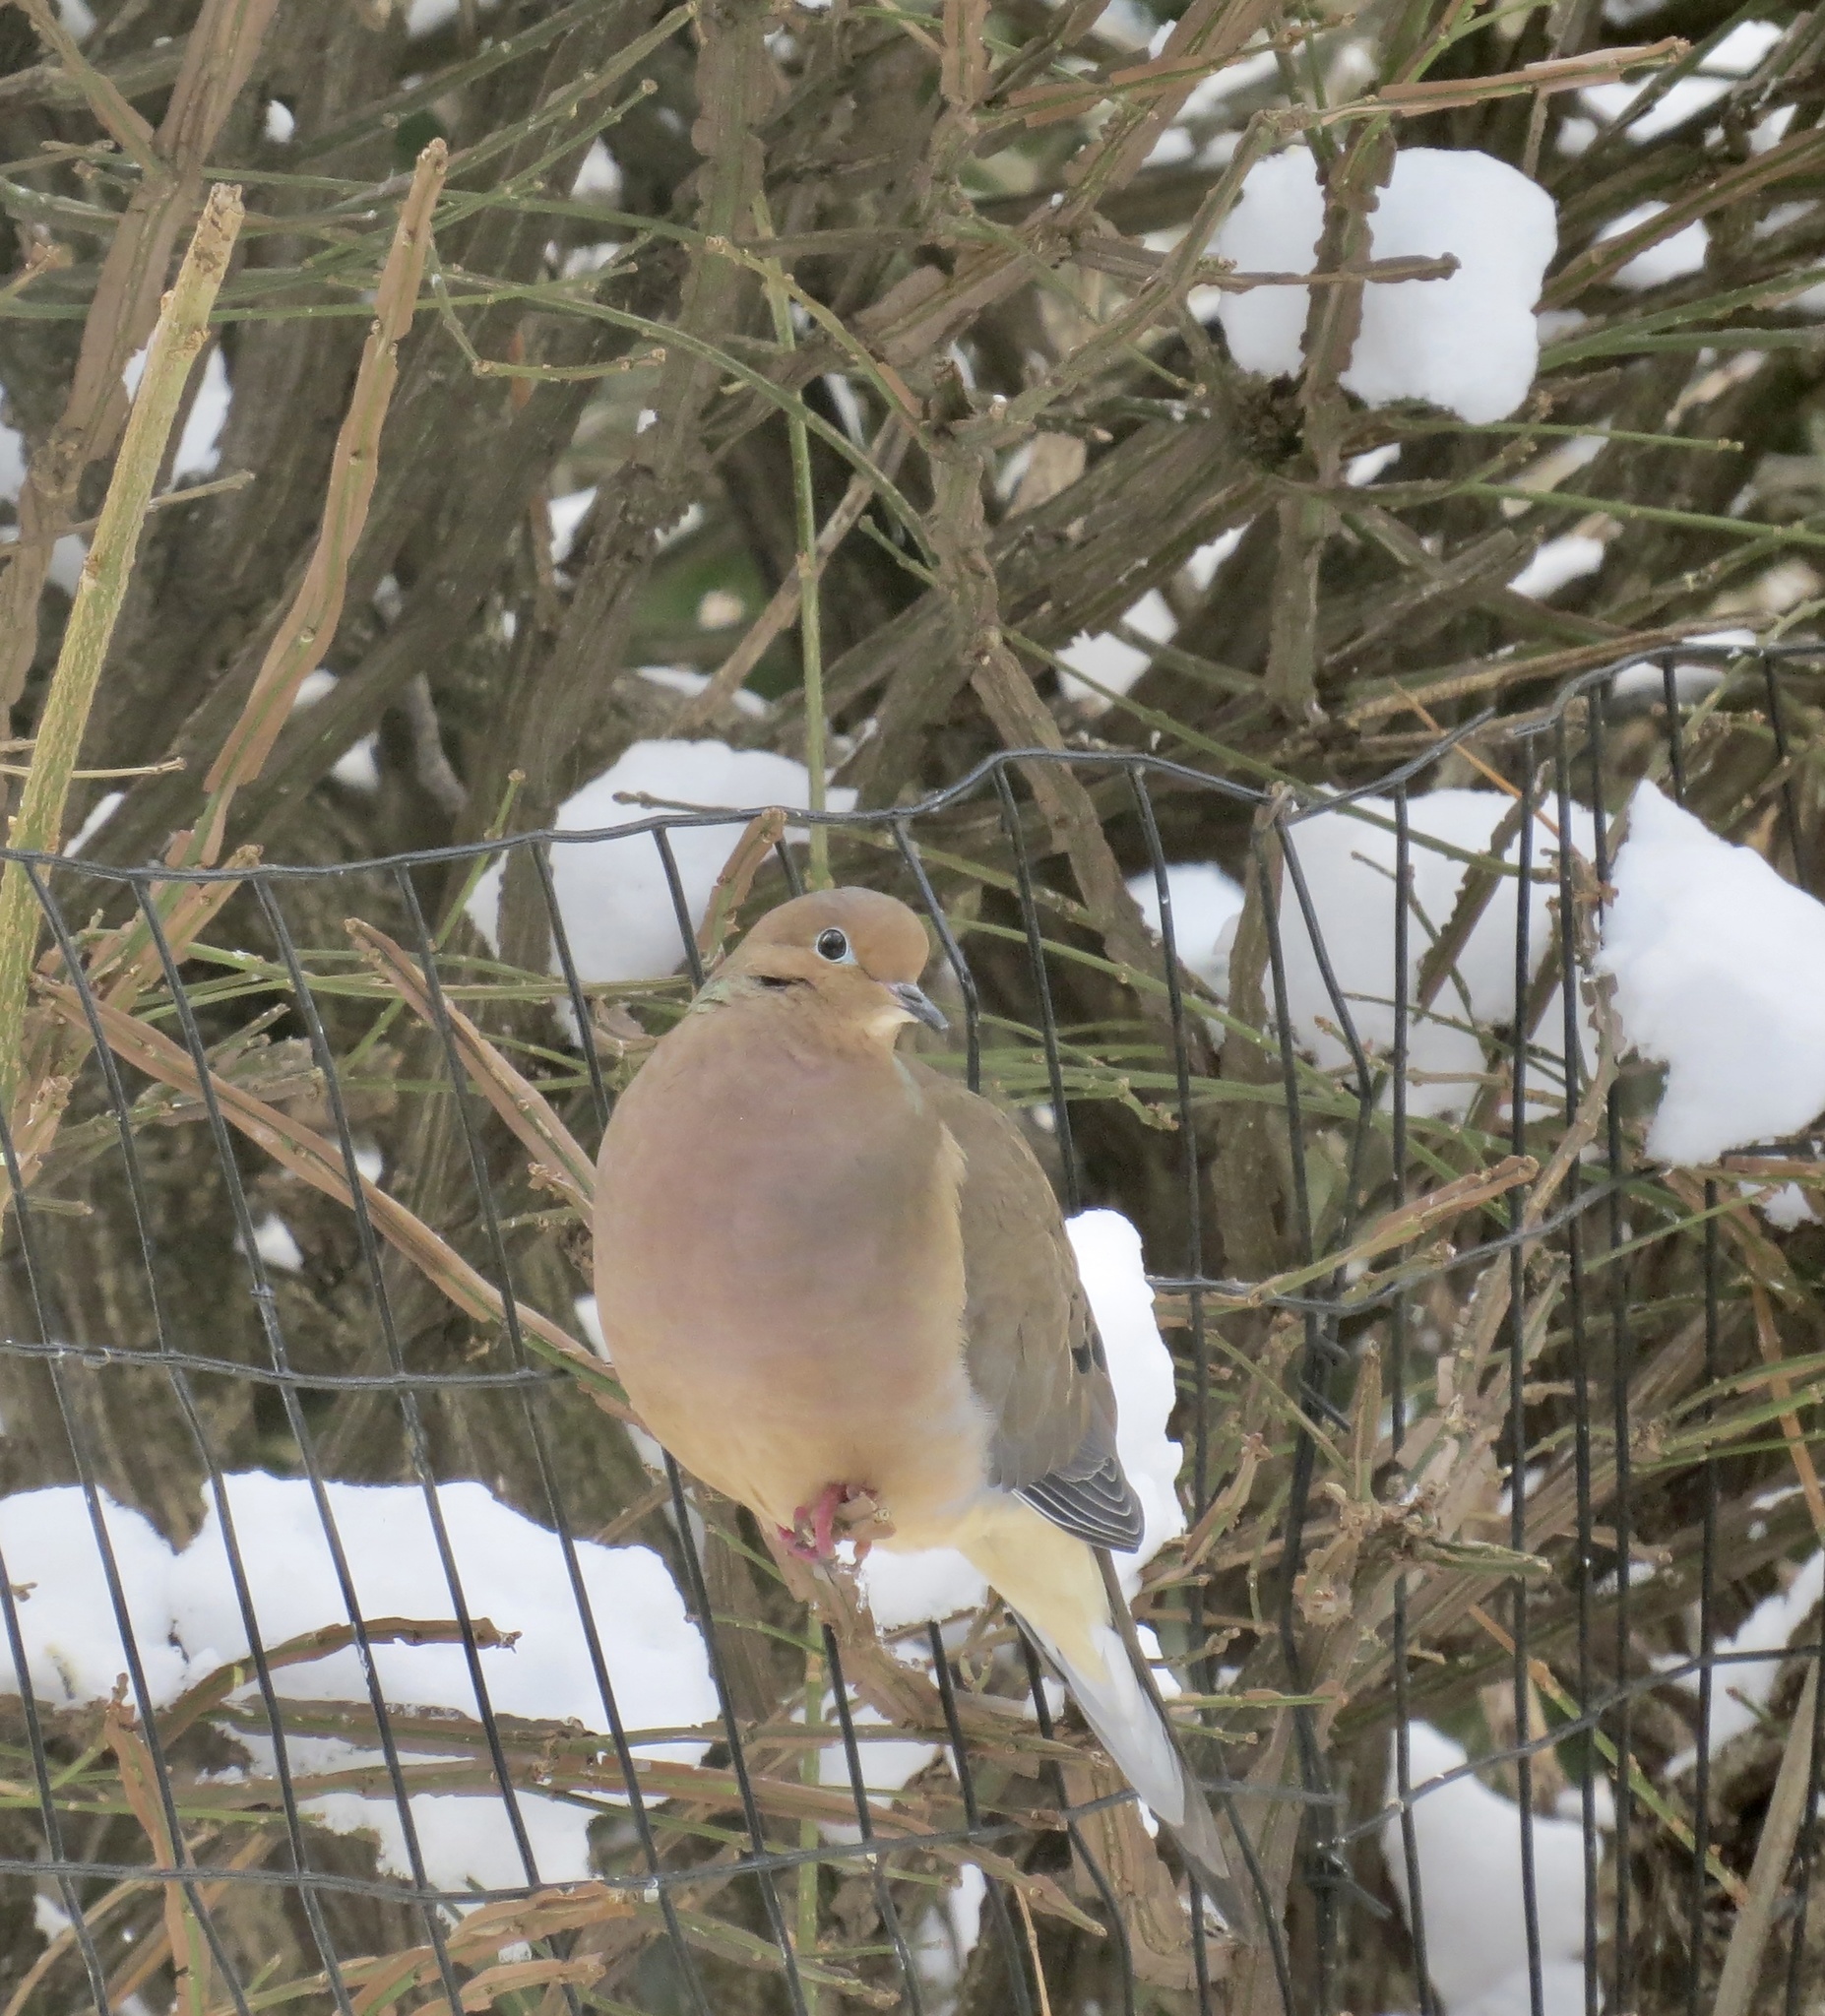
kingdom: Animalia
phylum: Chordata
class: Aves
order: Columbiformes
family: Columbidae
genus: Zenaida
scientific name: Zenaida macroura
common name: Mourning dove
